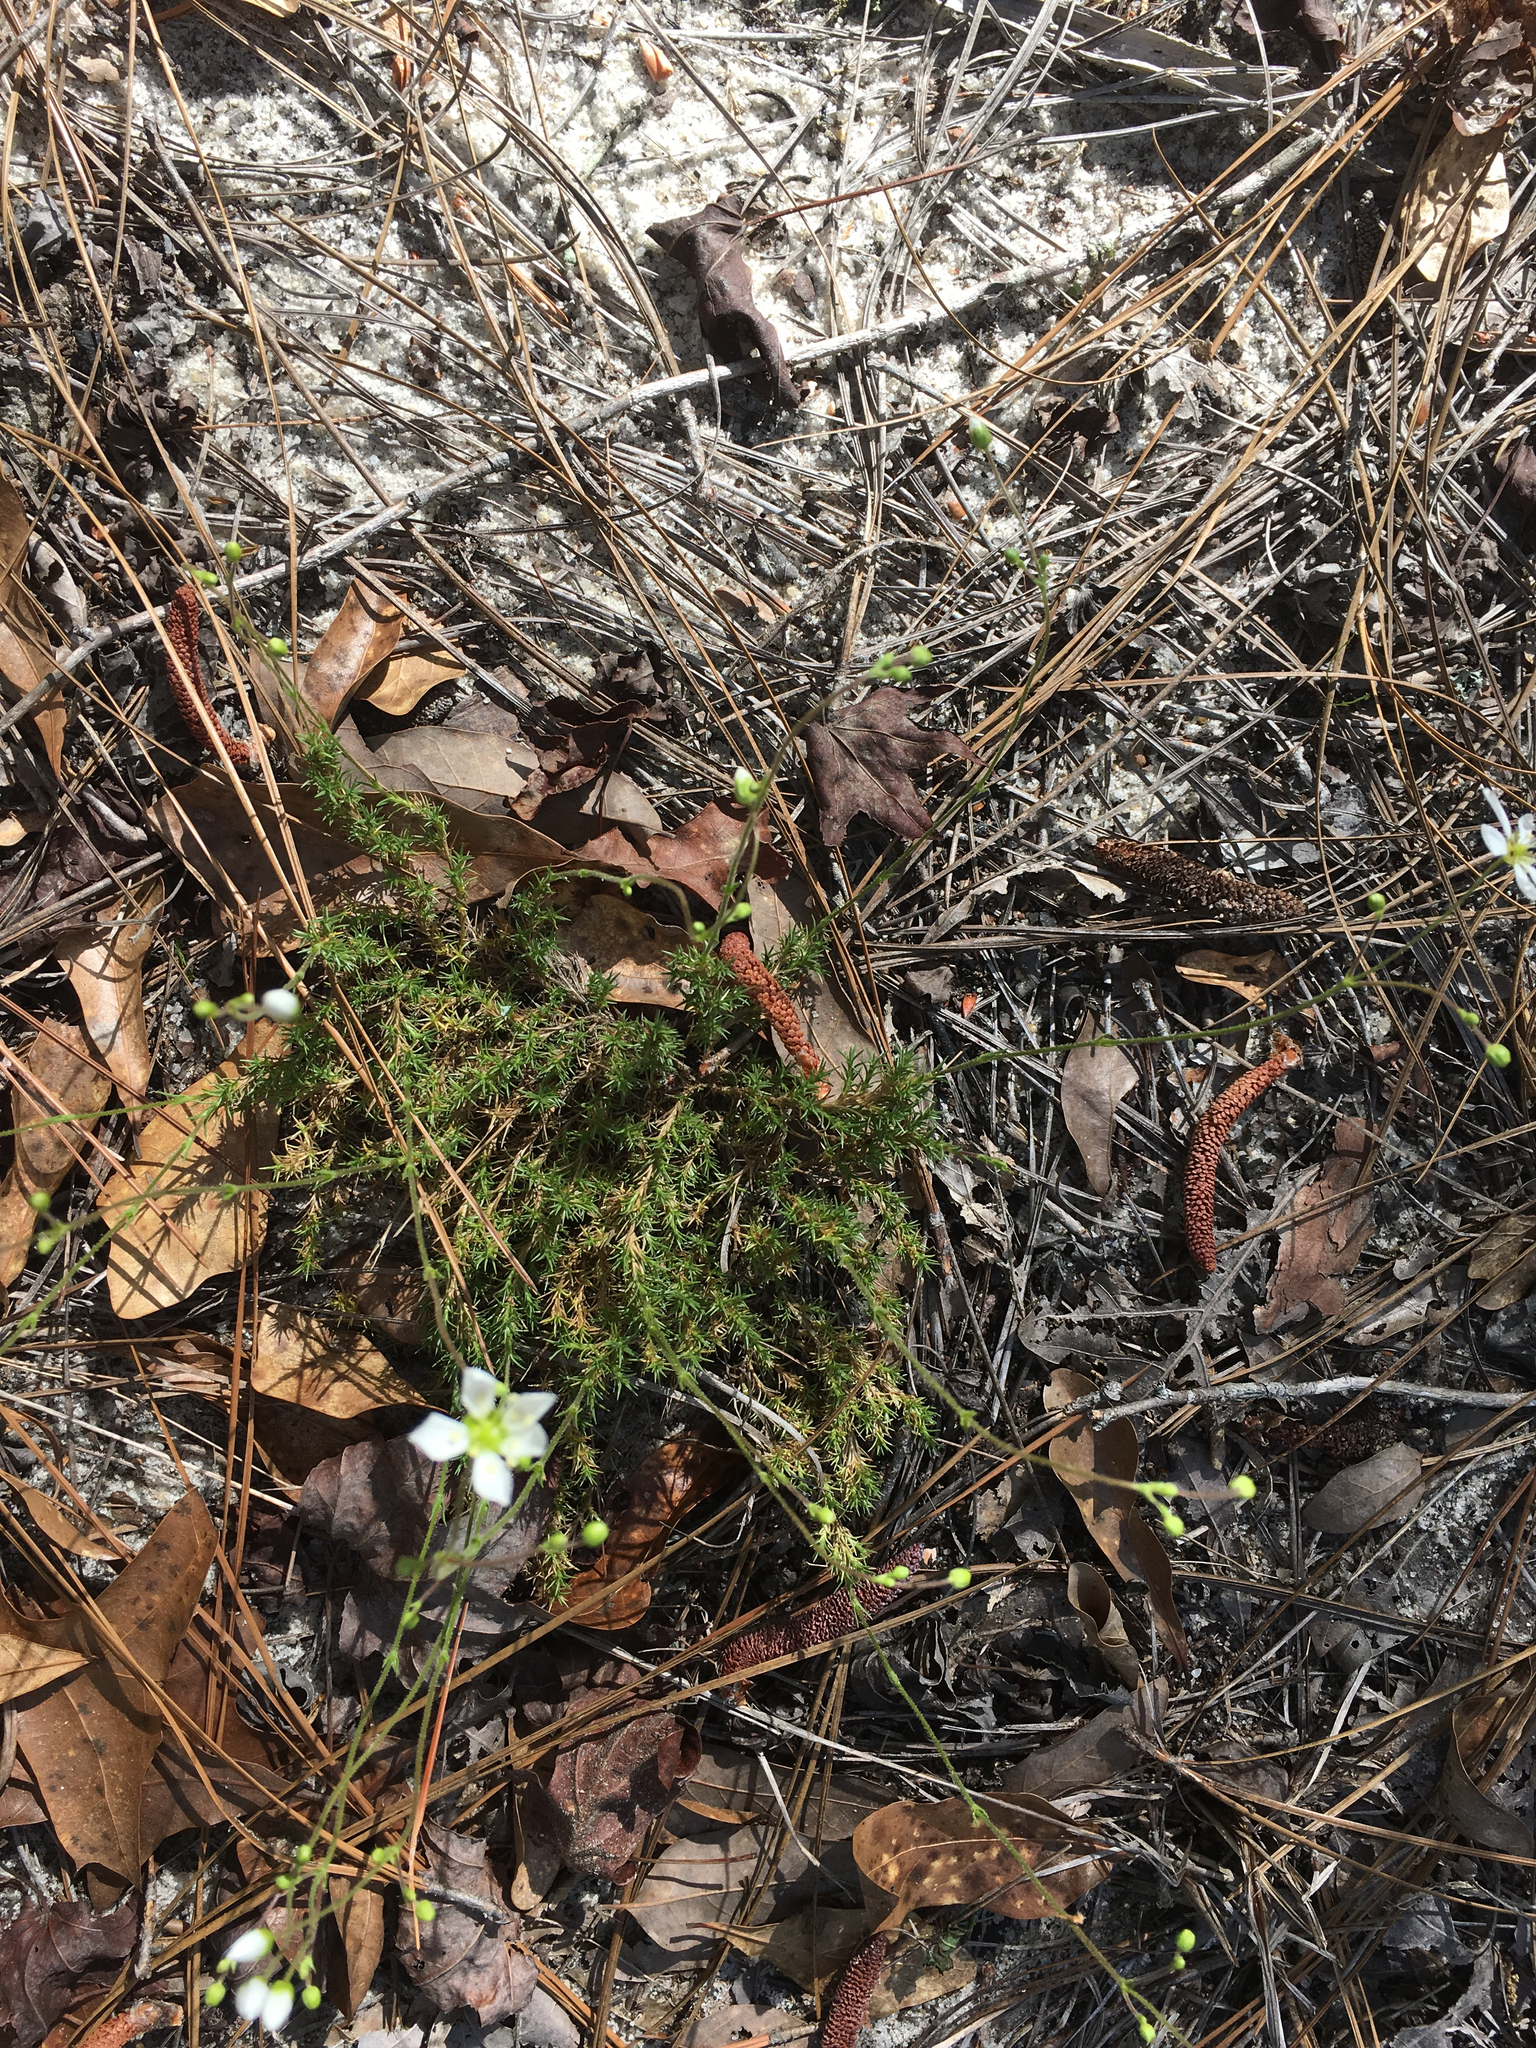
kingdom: Plantae
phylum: Tracheophyta
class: Magnoliopsida
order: Caryophyllales
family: Caryophyllaceae
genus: Geocarpon
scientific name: Geocarpon carolinianum
